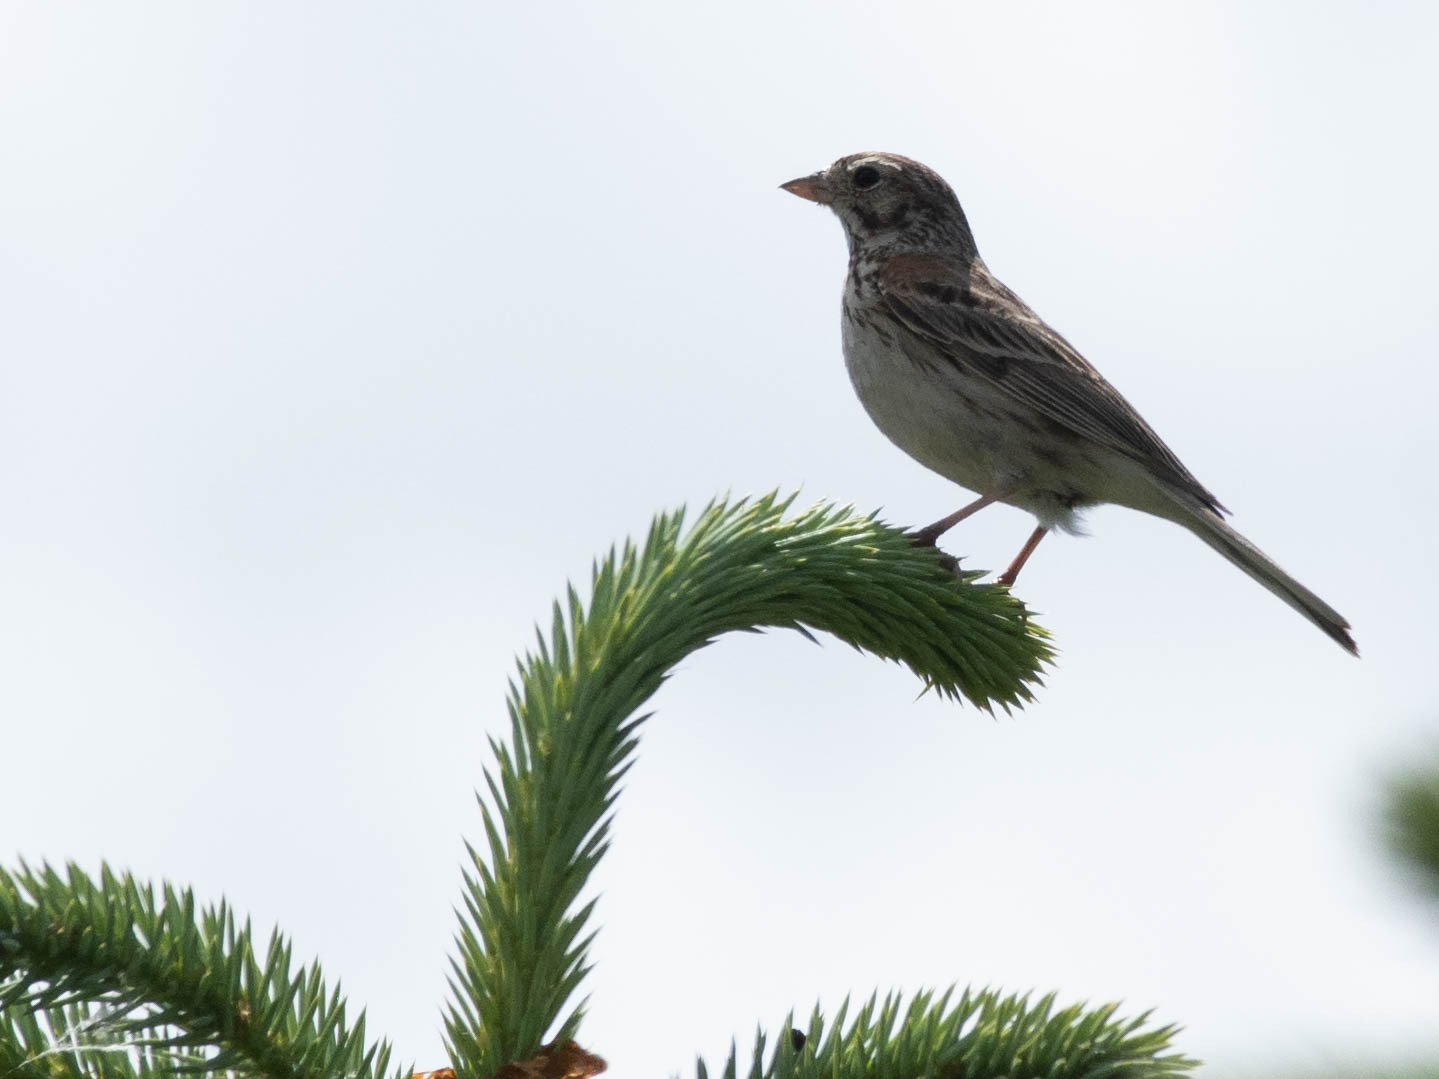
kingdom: Animalia
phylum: Chordata
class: Aves
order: Passeriformes
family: Passerellidae
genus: Pooecetes
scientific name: Pooecetes gramineus
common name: Vesper sparrow
